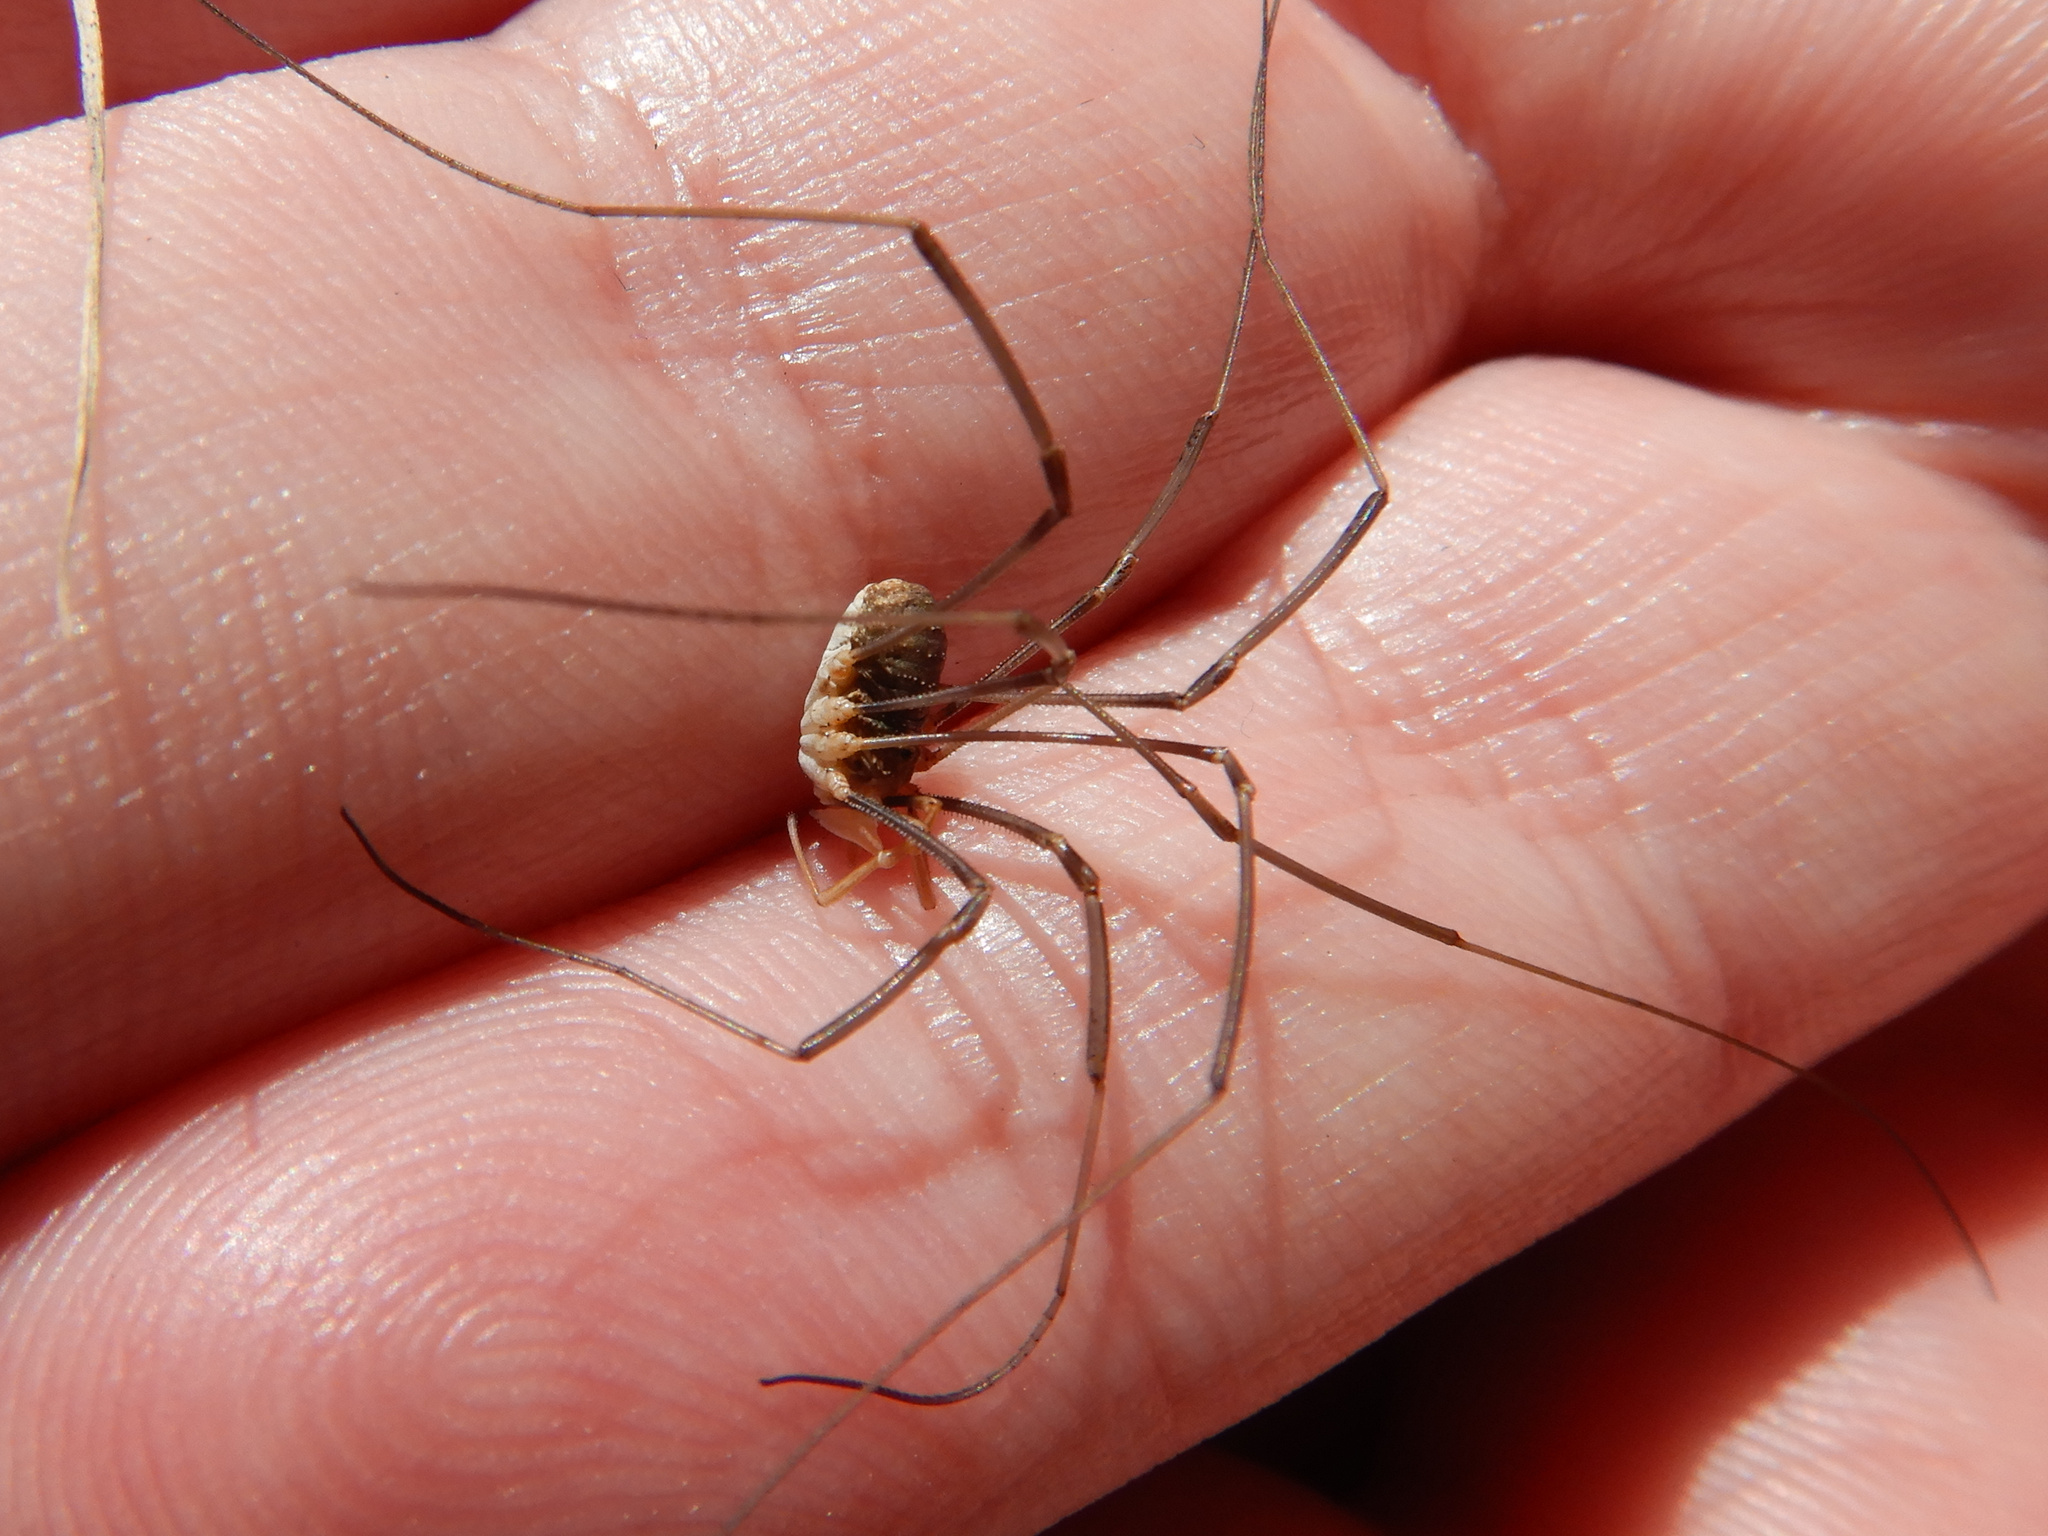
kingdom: Animalia
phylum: Arthropoda
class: Arachnida
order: Opiliones
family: Phalangiidae
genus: Phalangium
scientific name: Phalangium opilio
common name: Daddy longleg
